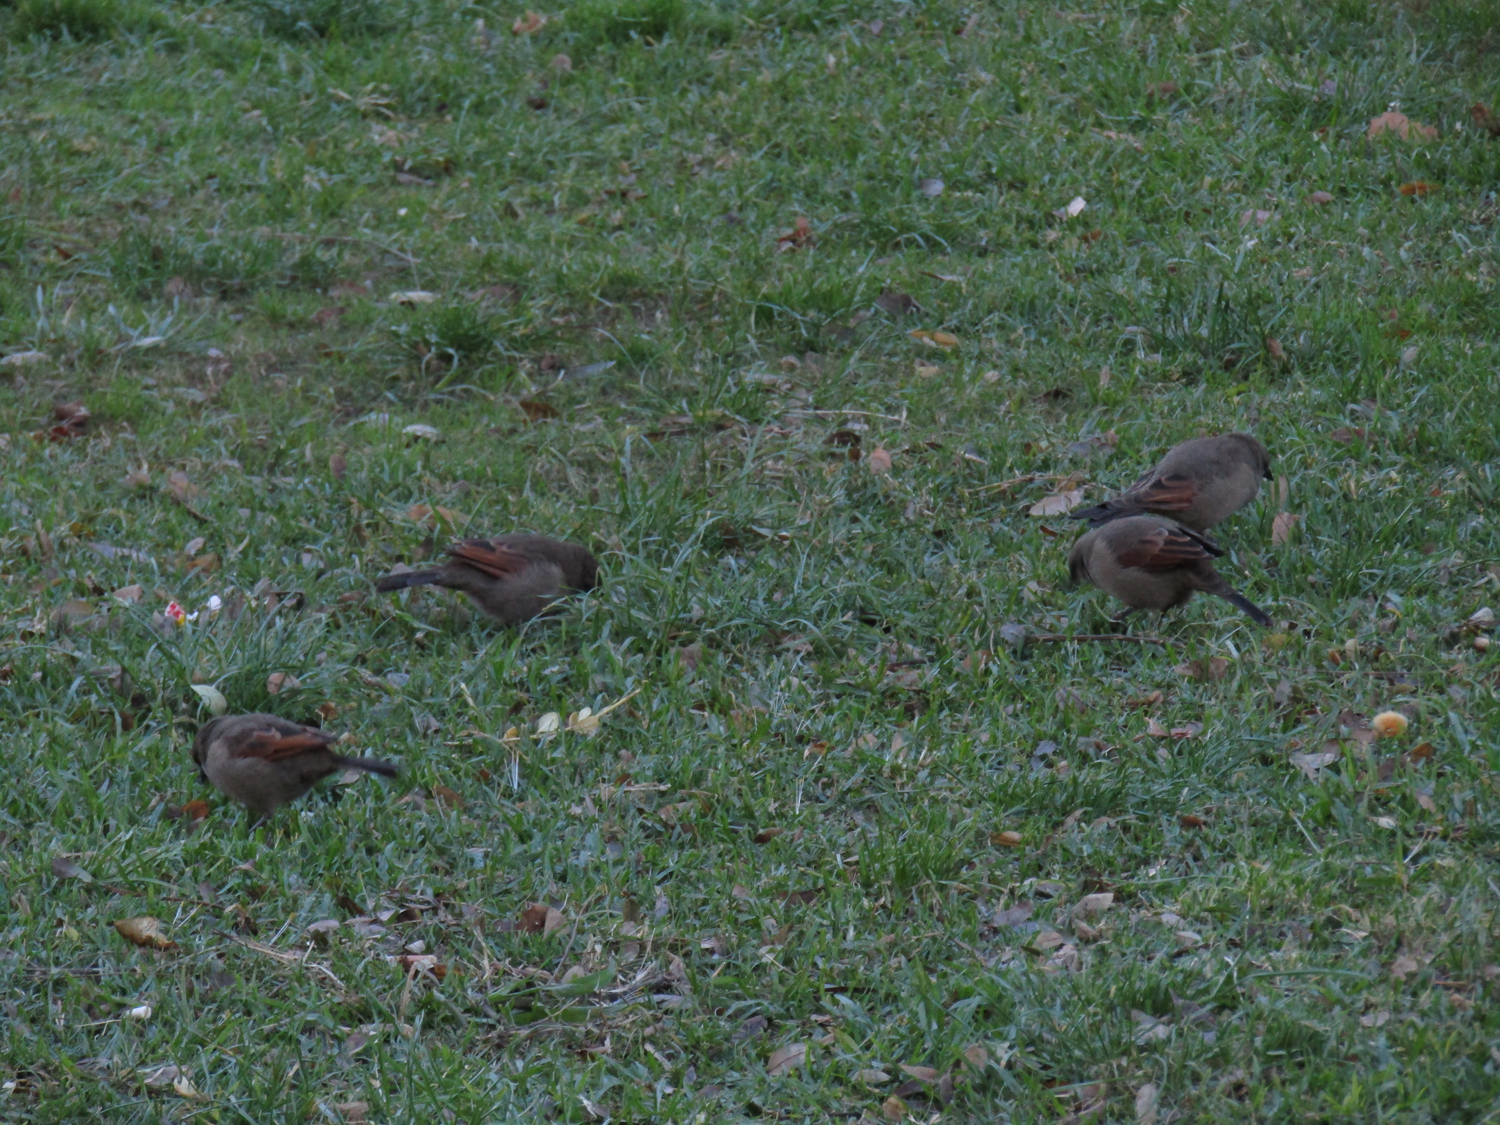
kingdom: Animalia
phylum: Chordata
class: Aves
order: Passeriformes
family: Icteridae
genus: Agelaioides
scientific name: Agelaioides badius
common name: Baywing
